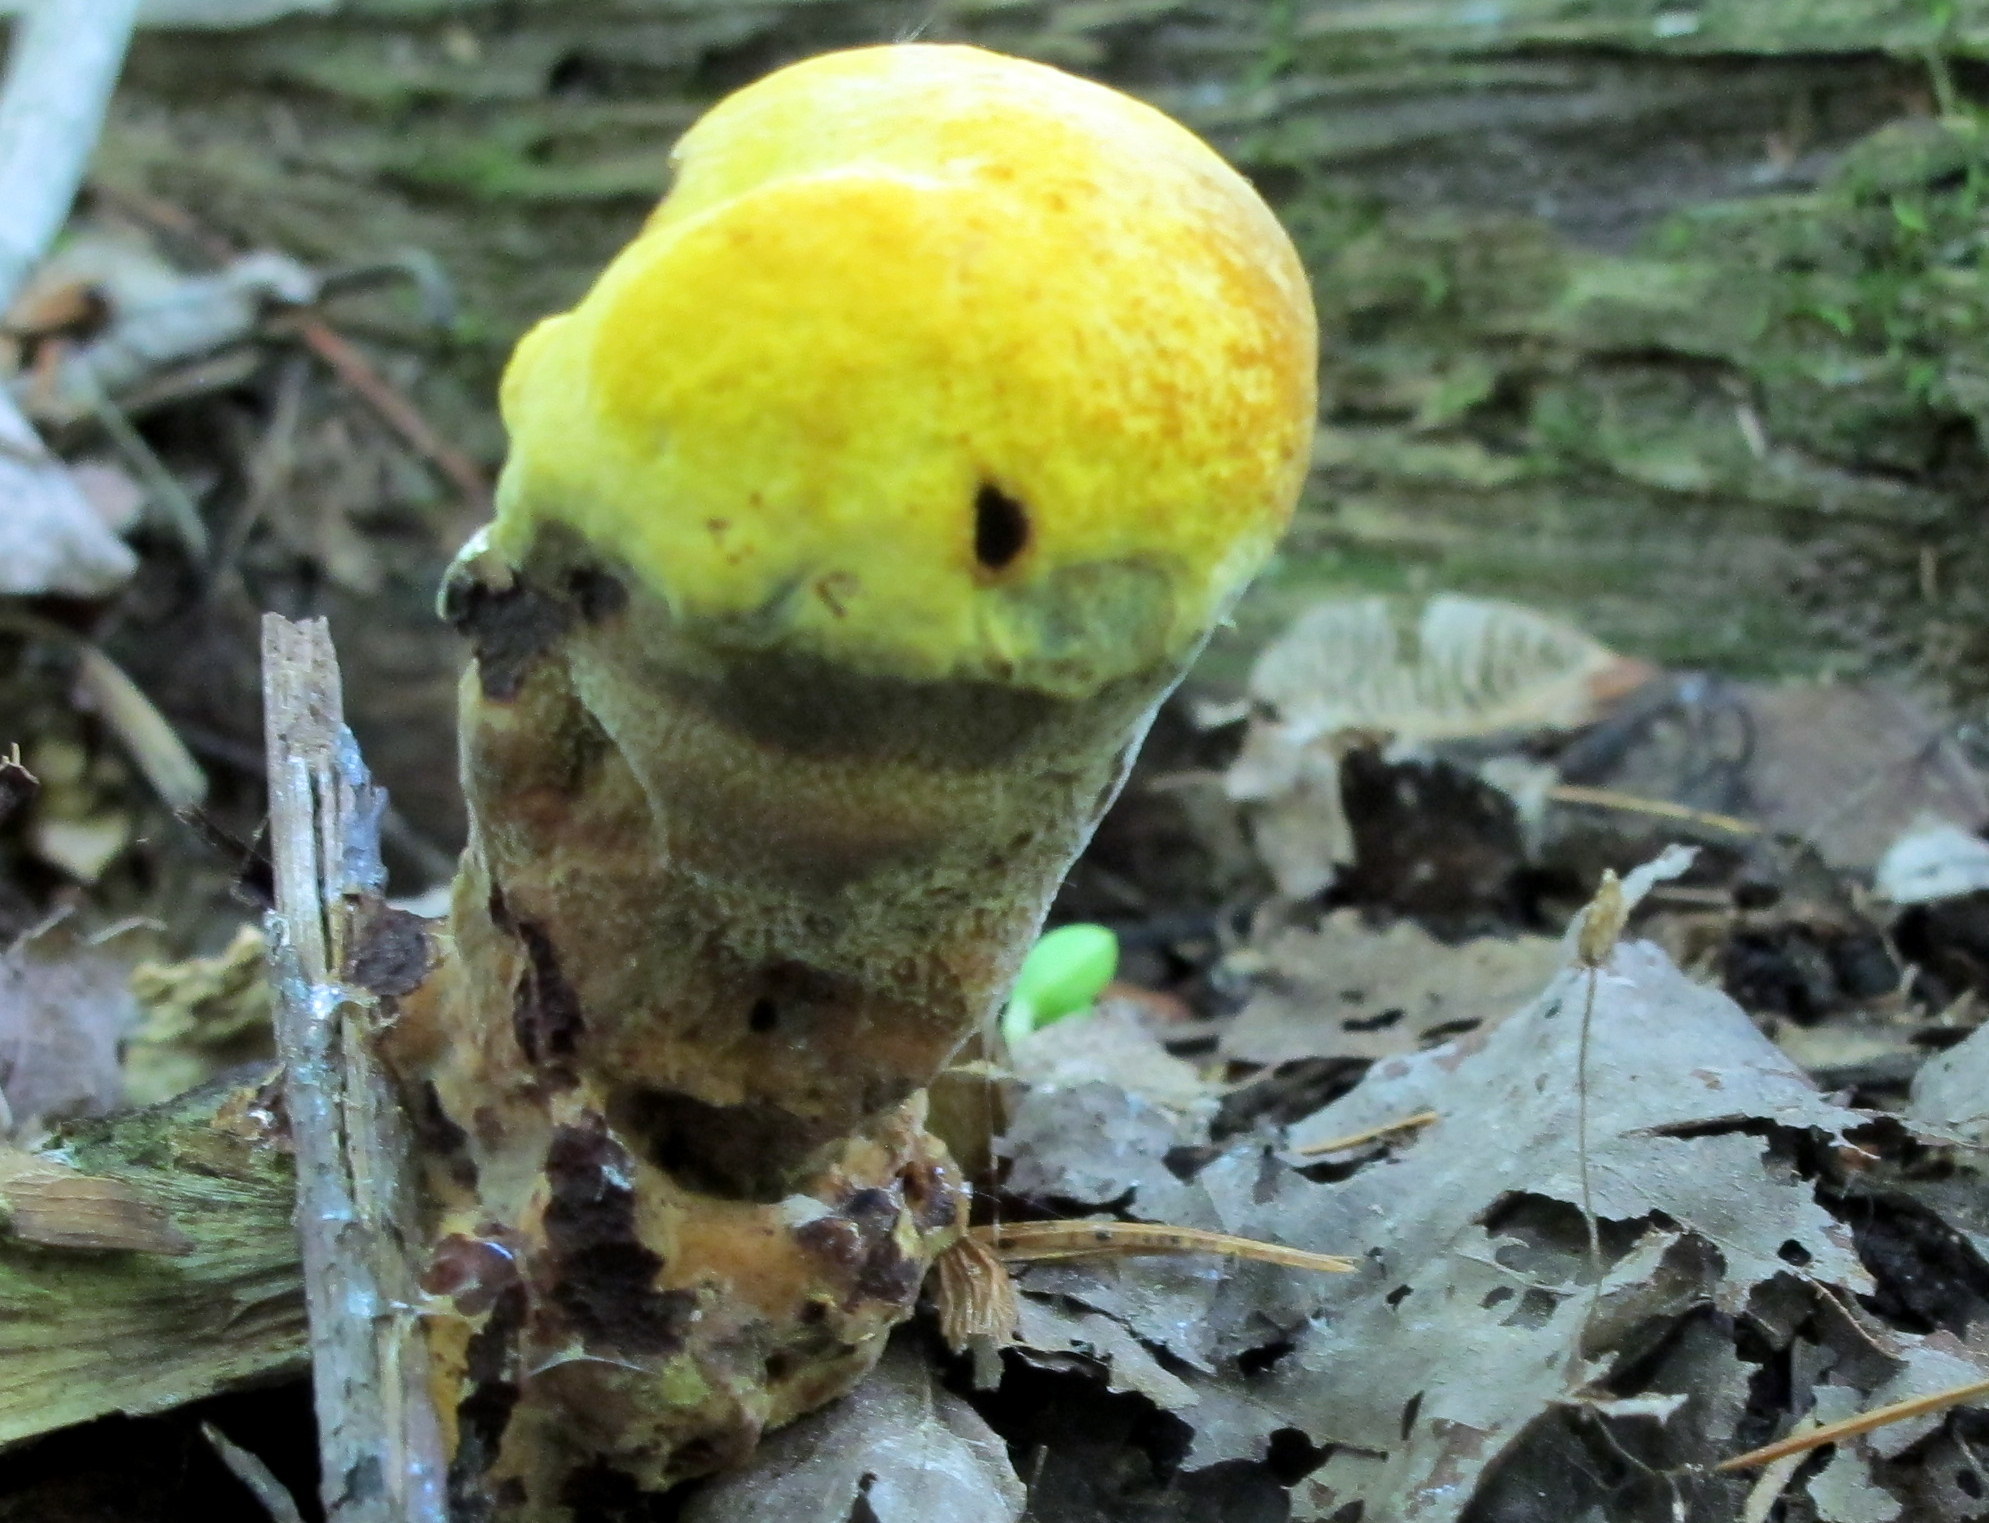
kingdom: Fungi
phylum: Basidiomycota
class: Agaricomycetes
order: Polyporales
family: Laetiporaceae
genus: Phaeolus
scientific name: Phaeolus schweinitzii
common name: Dyer's mazegill
